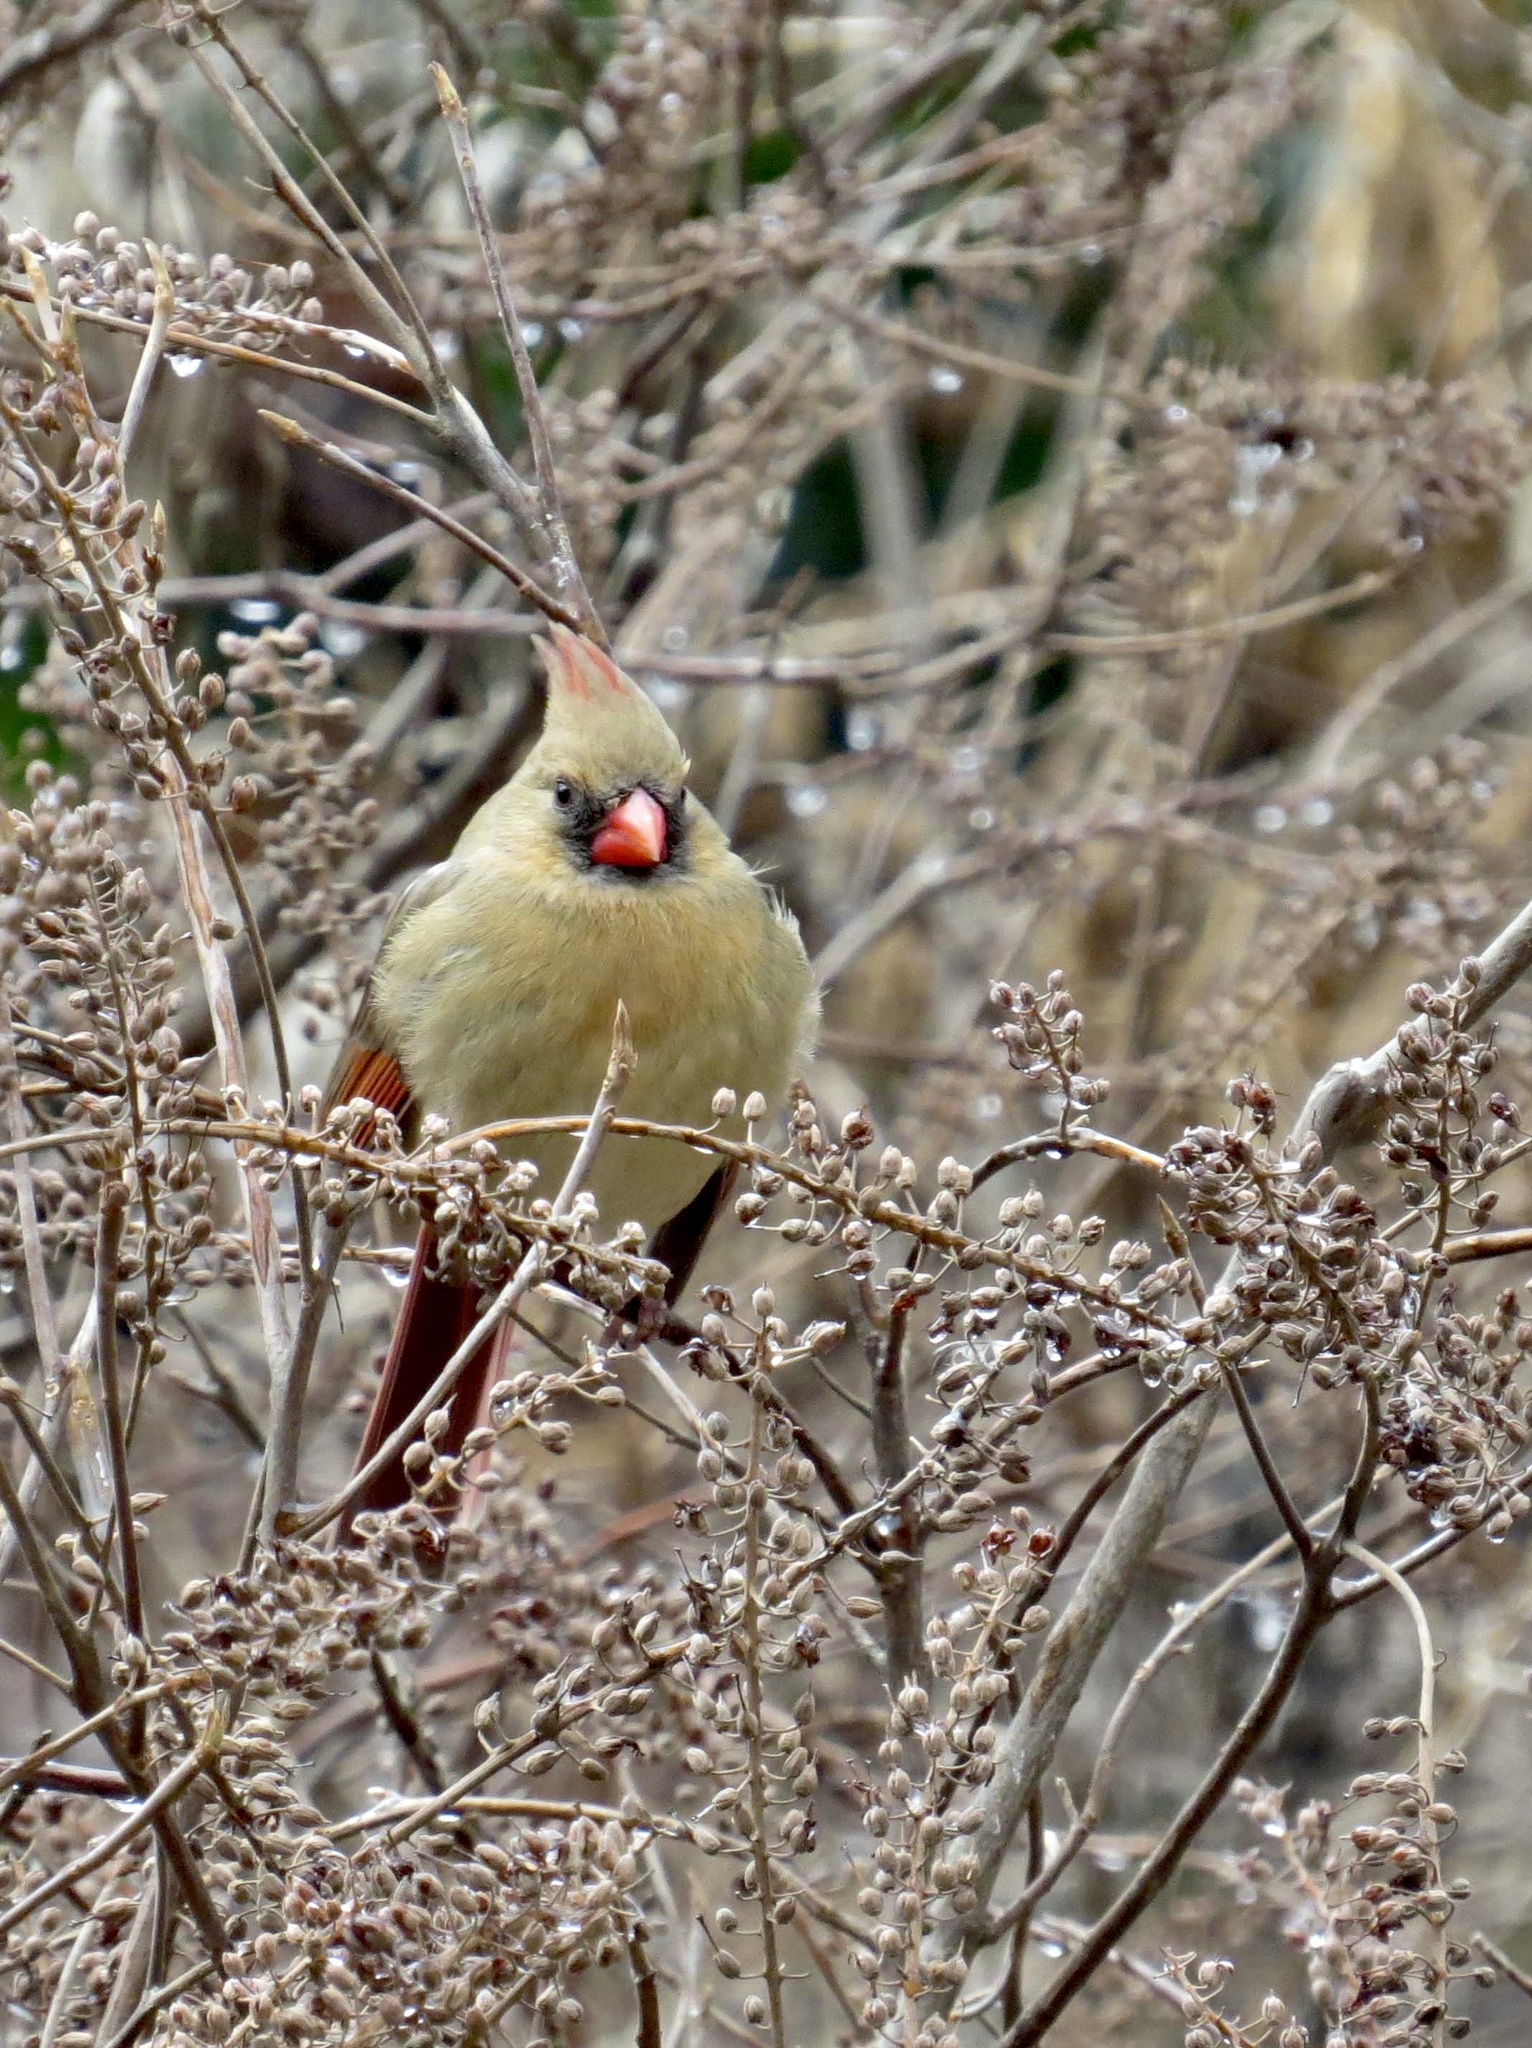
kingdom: Animalia
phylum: Chordata
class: Aves
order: Passeriformes
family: Cardinalidae
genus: Cardinalis
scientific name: Cardinalis cardinalis
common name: Northern cardinal
